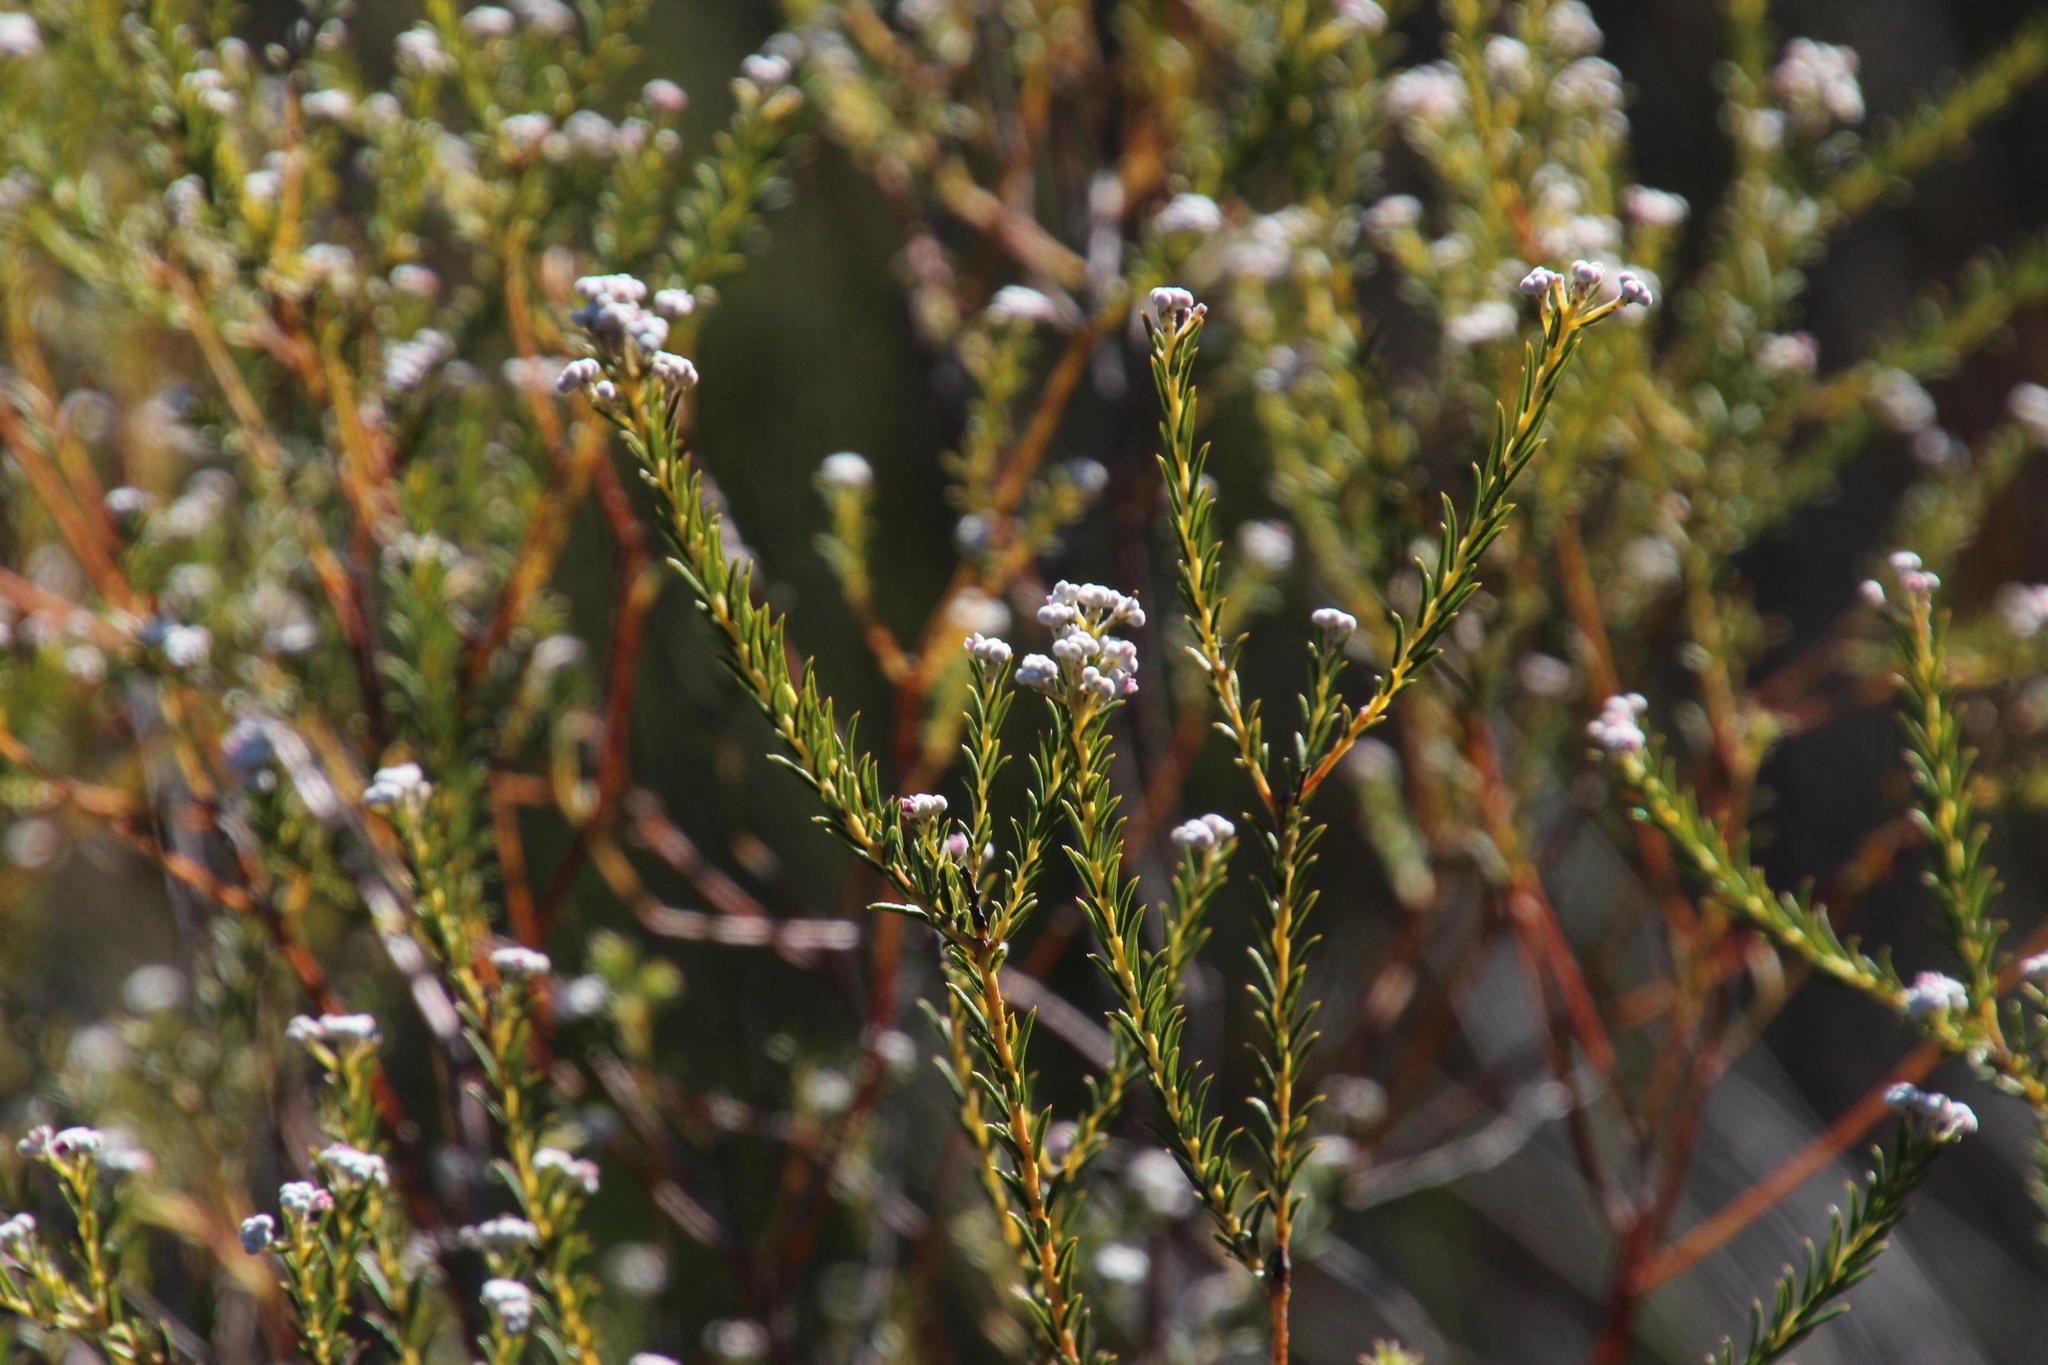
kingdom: Plantae
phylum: Tracheophyta
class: Magnoliopsida
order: Rosales
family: Rhamnaceae
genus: Phylica
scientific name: Phylica rigidifolia
